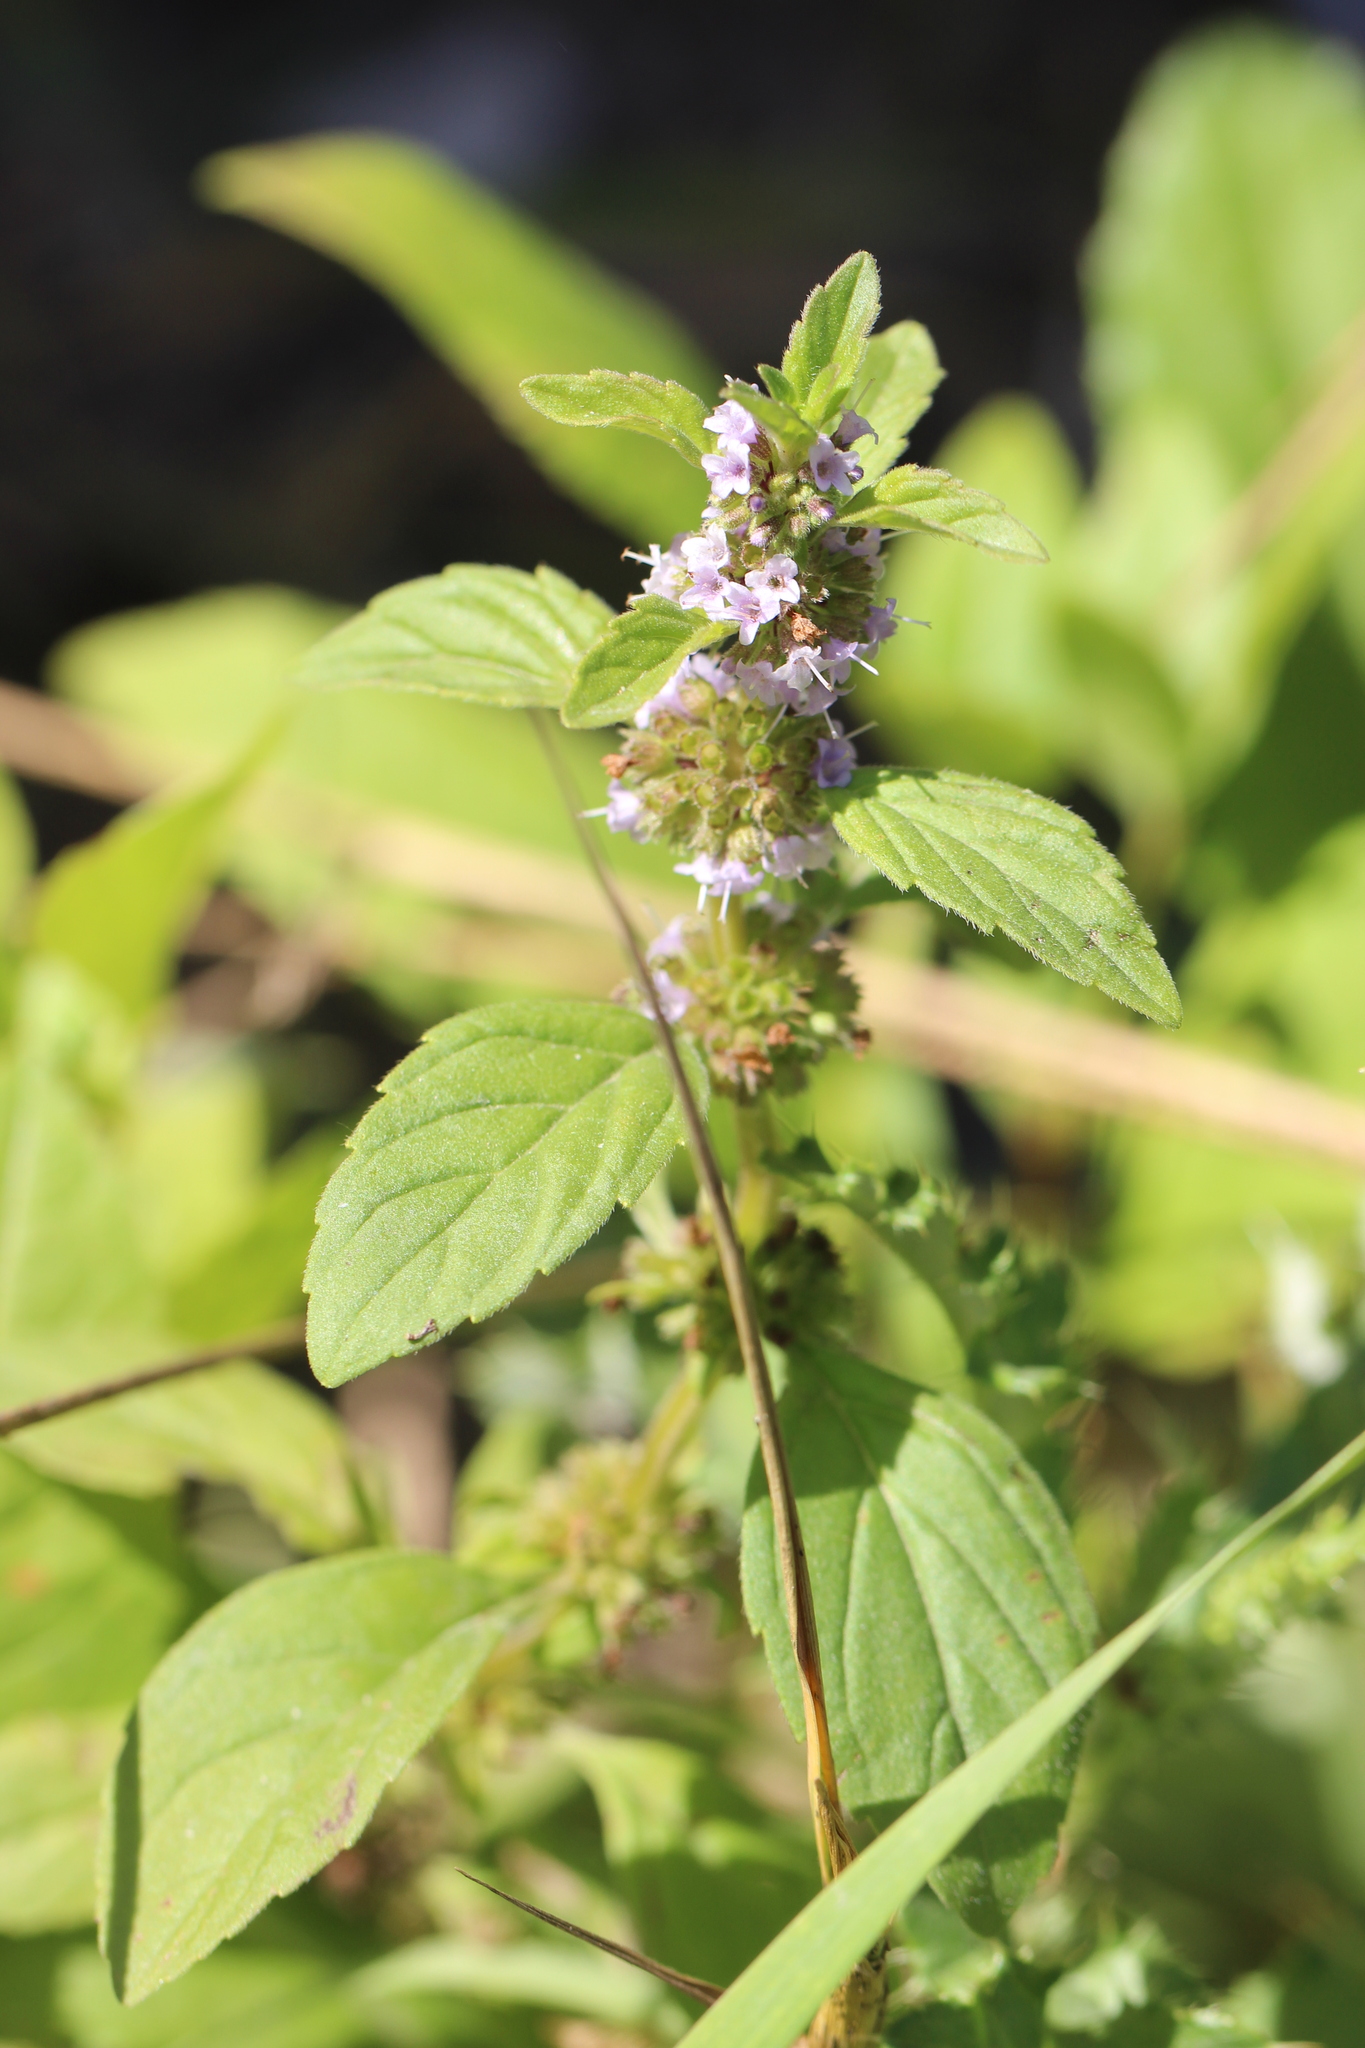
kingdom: Plantae
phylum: Tracheophyta
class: Magnoliopsida
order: Lamiales
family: Lamiaceae
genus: Mentha
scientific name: Mentha arvensis
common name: Corn mint
